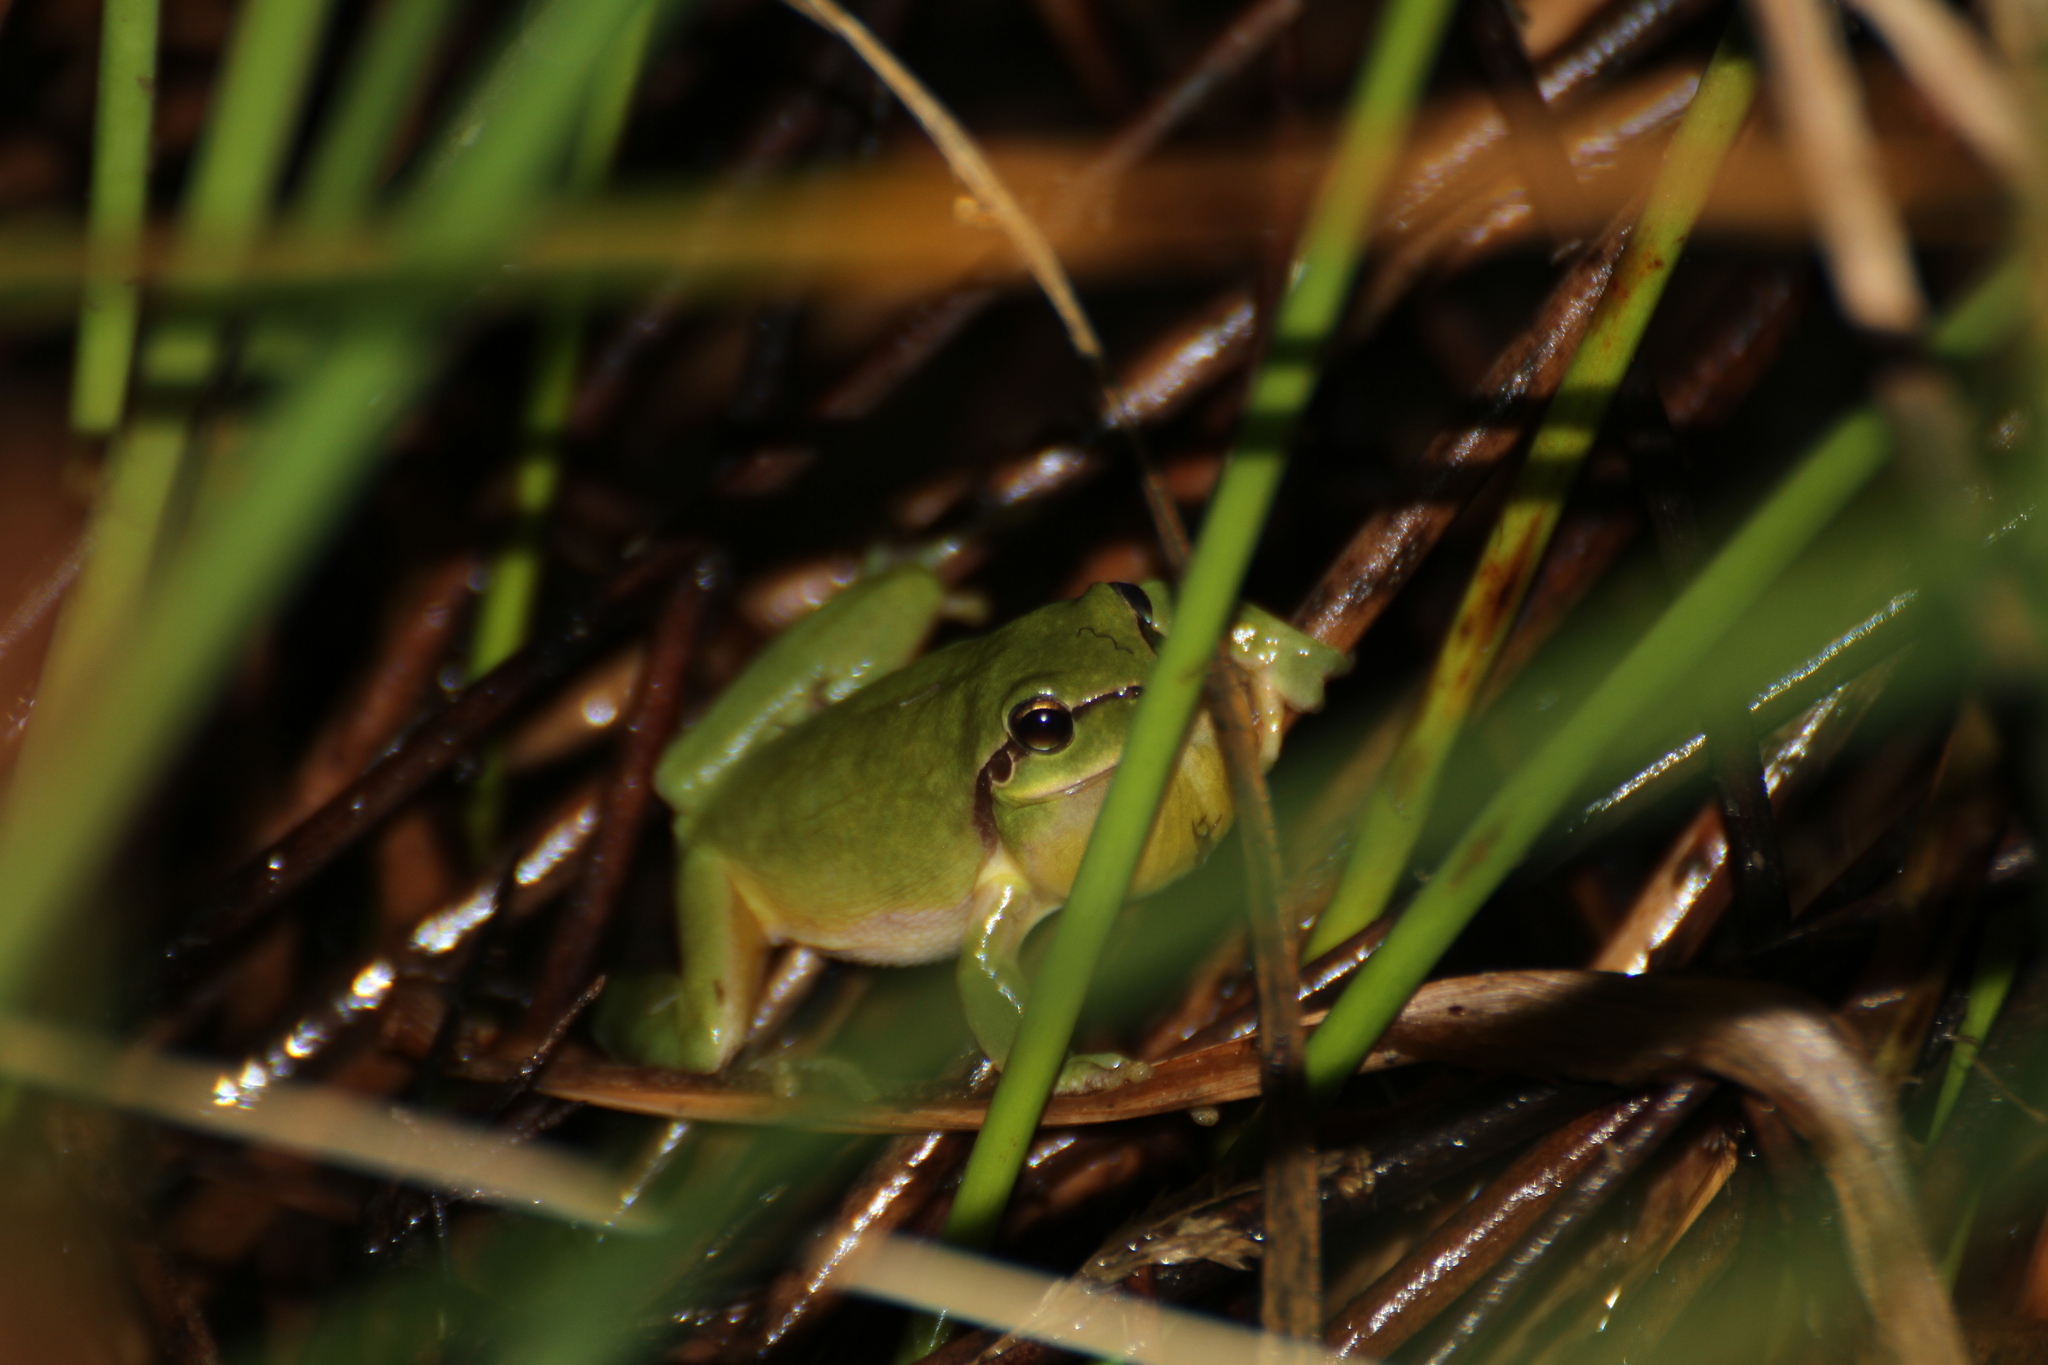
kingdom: Animalia
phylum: Chordata
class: Amphibia
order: Anura
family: Hylidae
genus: Hyla
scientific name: Hyla meridionalis
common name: Stripeless tree frog
